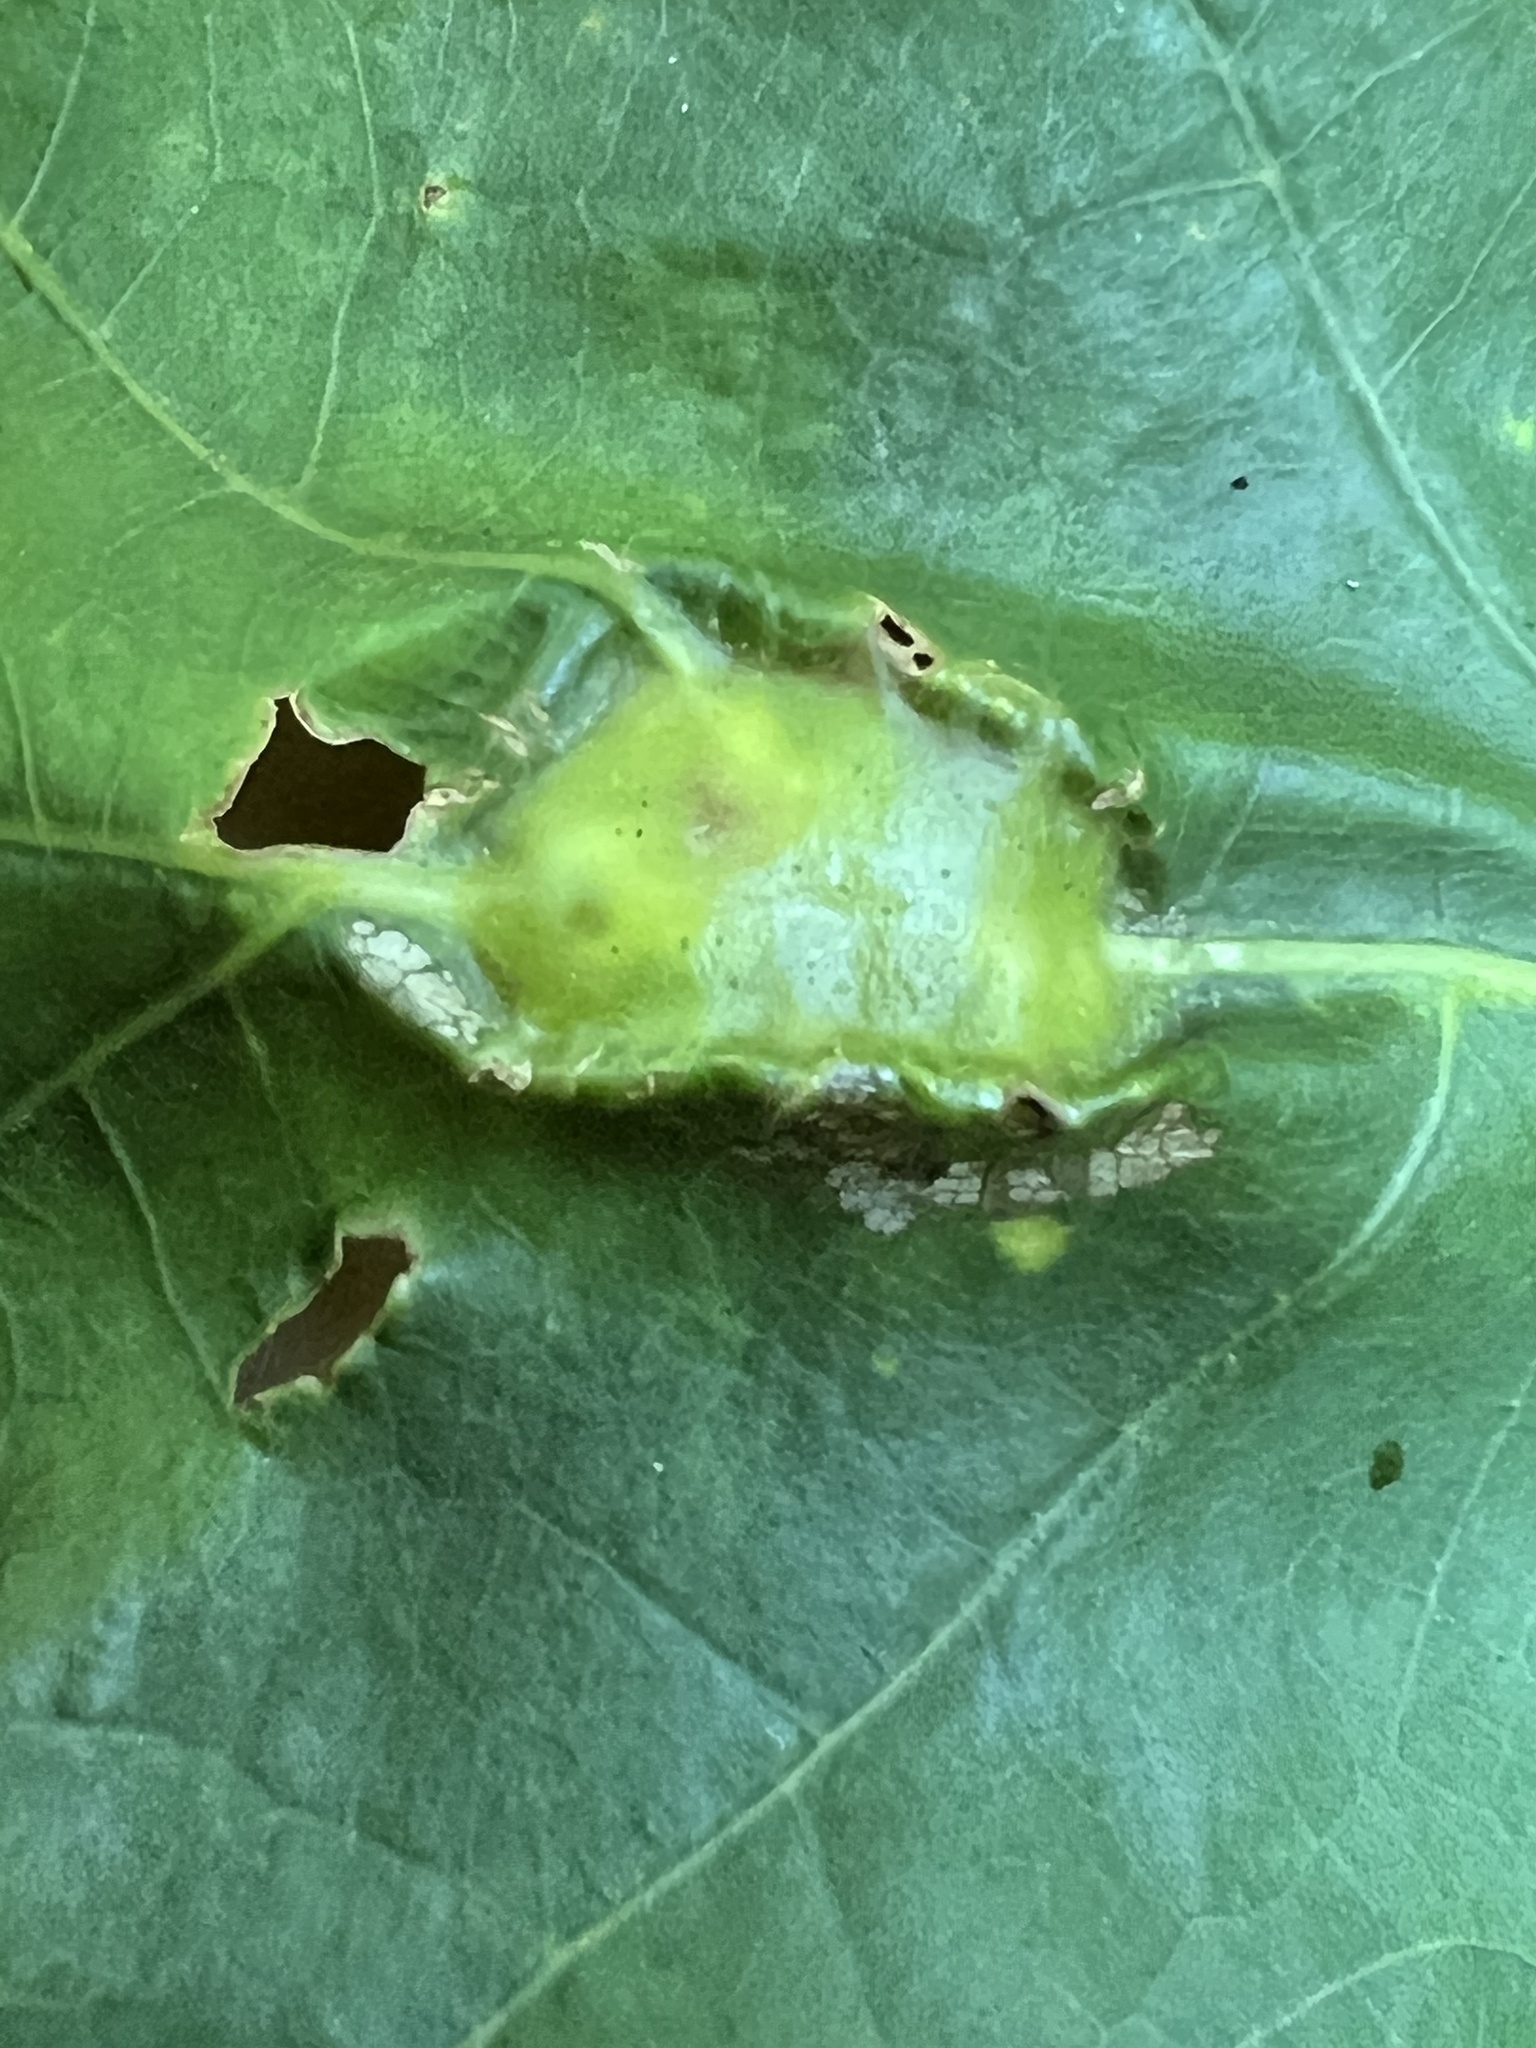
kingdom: Animalia
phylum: Arthropoda
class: Insecta
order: Hymenoptera
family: Cynipidae
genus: Melikaiella
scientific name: Melikaiella tumifica
